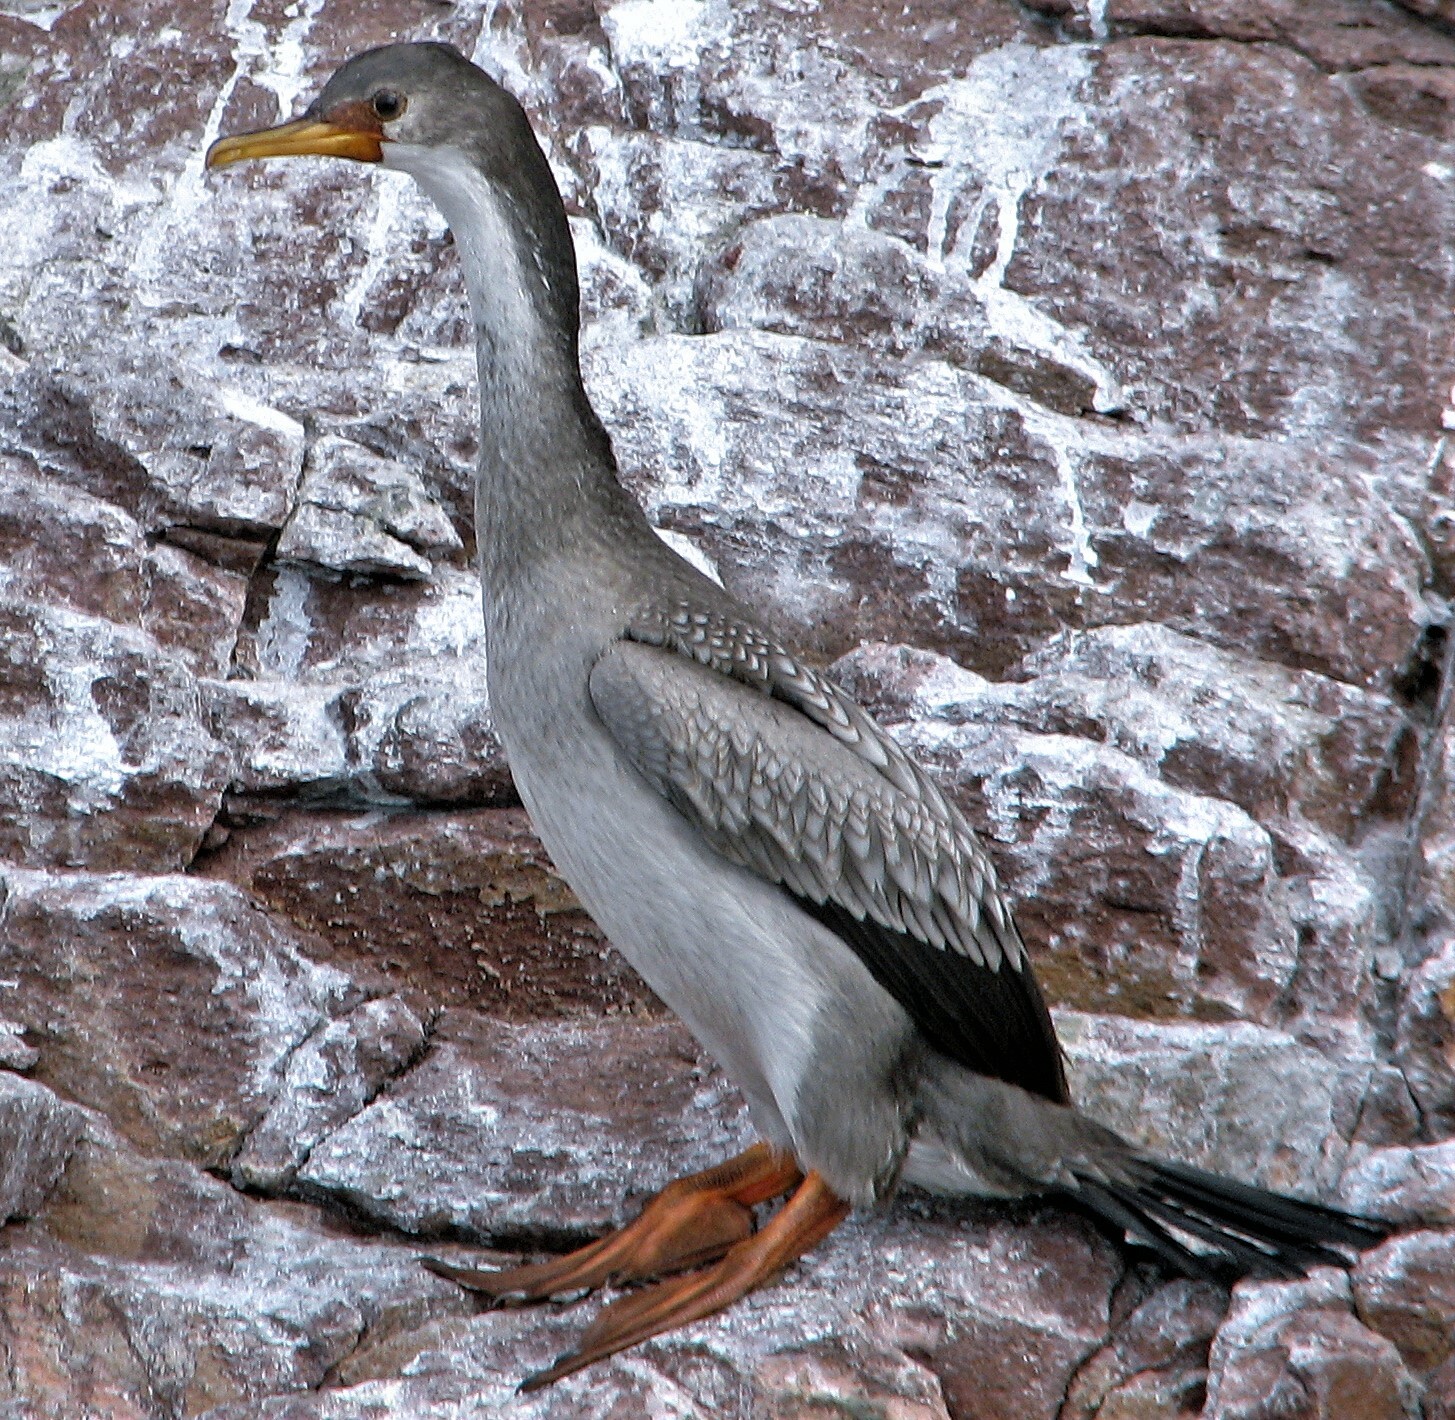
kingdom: Animalia
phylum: Chordata
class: Aves
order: Suliformes
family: Phalacrocoracidae
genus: Phalacrocorax
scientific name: Phalacrocorax gaimardi
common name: Red-legged cormorant
